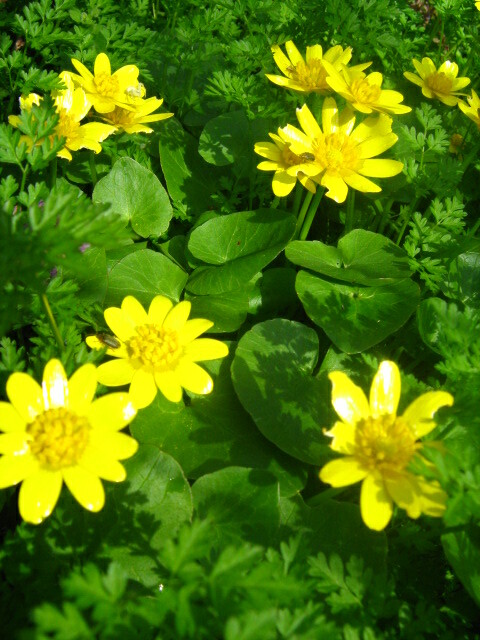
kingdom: Plantae
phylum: Tracheophyta
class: Magnoliopsida
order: Ranunculales
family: Ranunculaceae
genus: Ficaria
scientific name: Ficaria verna
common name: Lesser celandine
